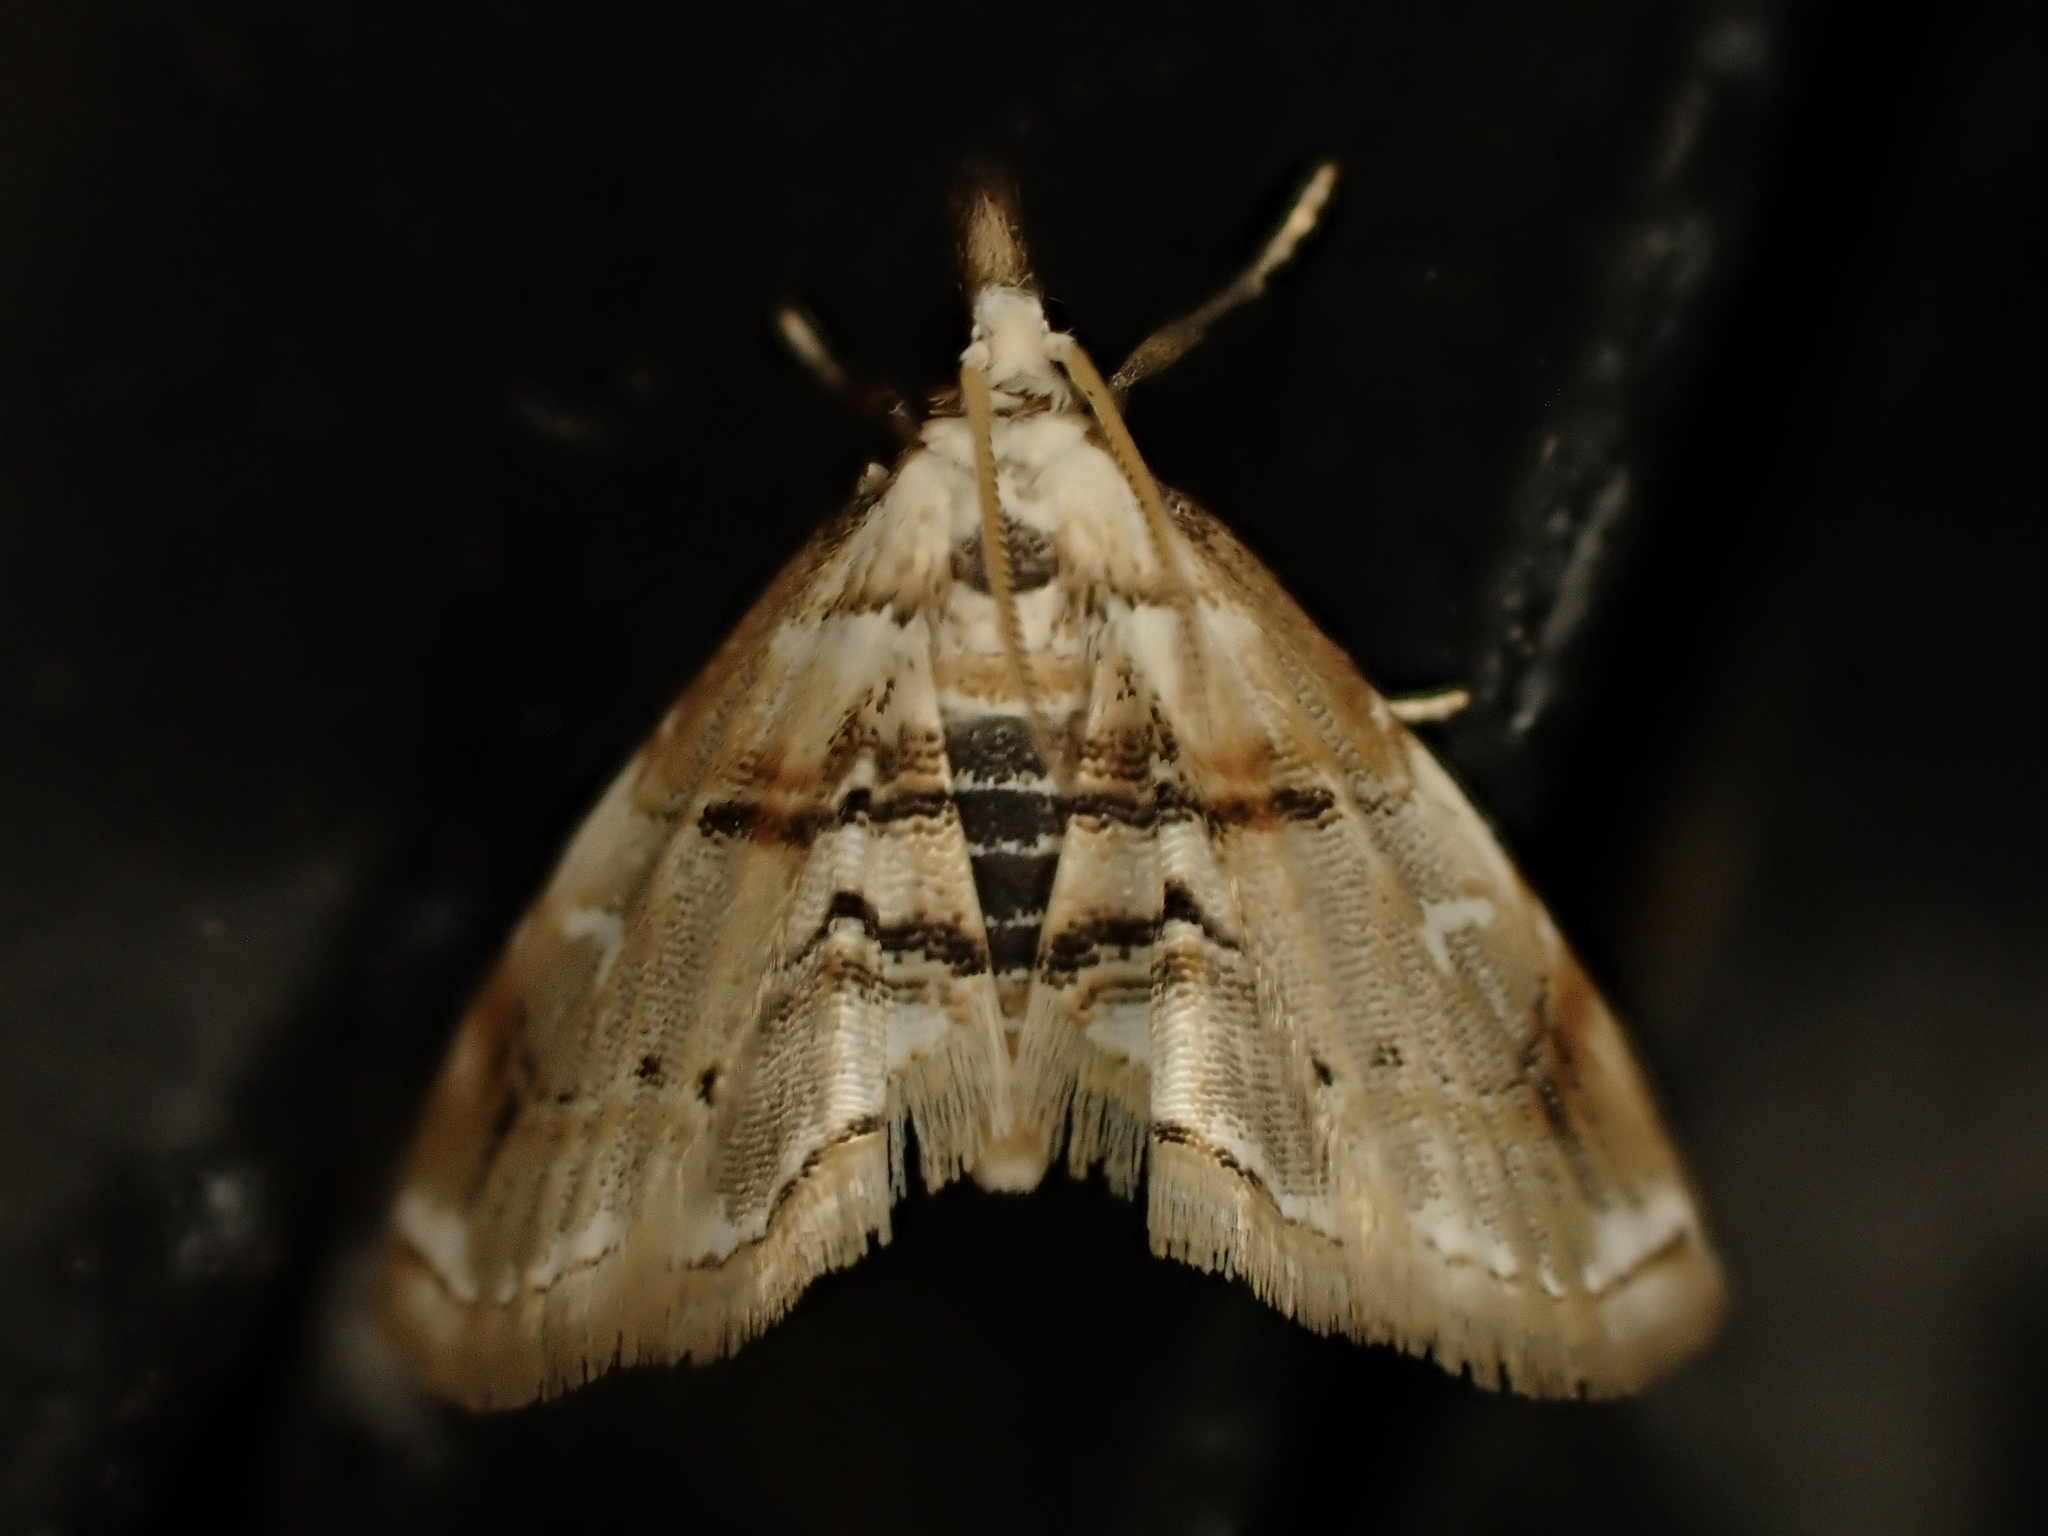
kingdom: Animalia
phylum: Arthropoda
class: Insecta
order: Lepidoptera
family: Crambidae
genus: Trichophysetis
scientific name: Trichophysetis
